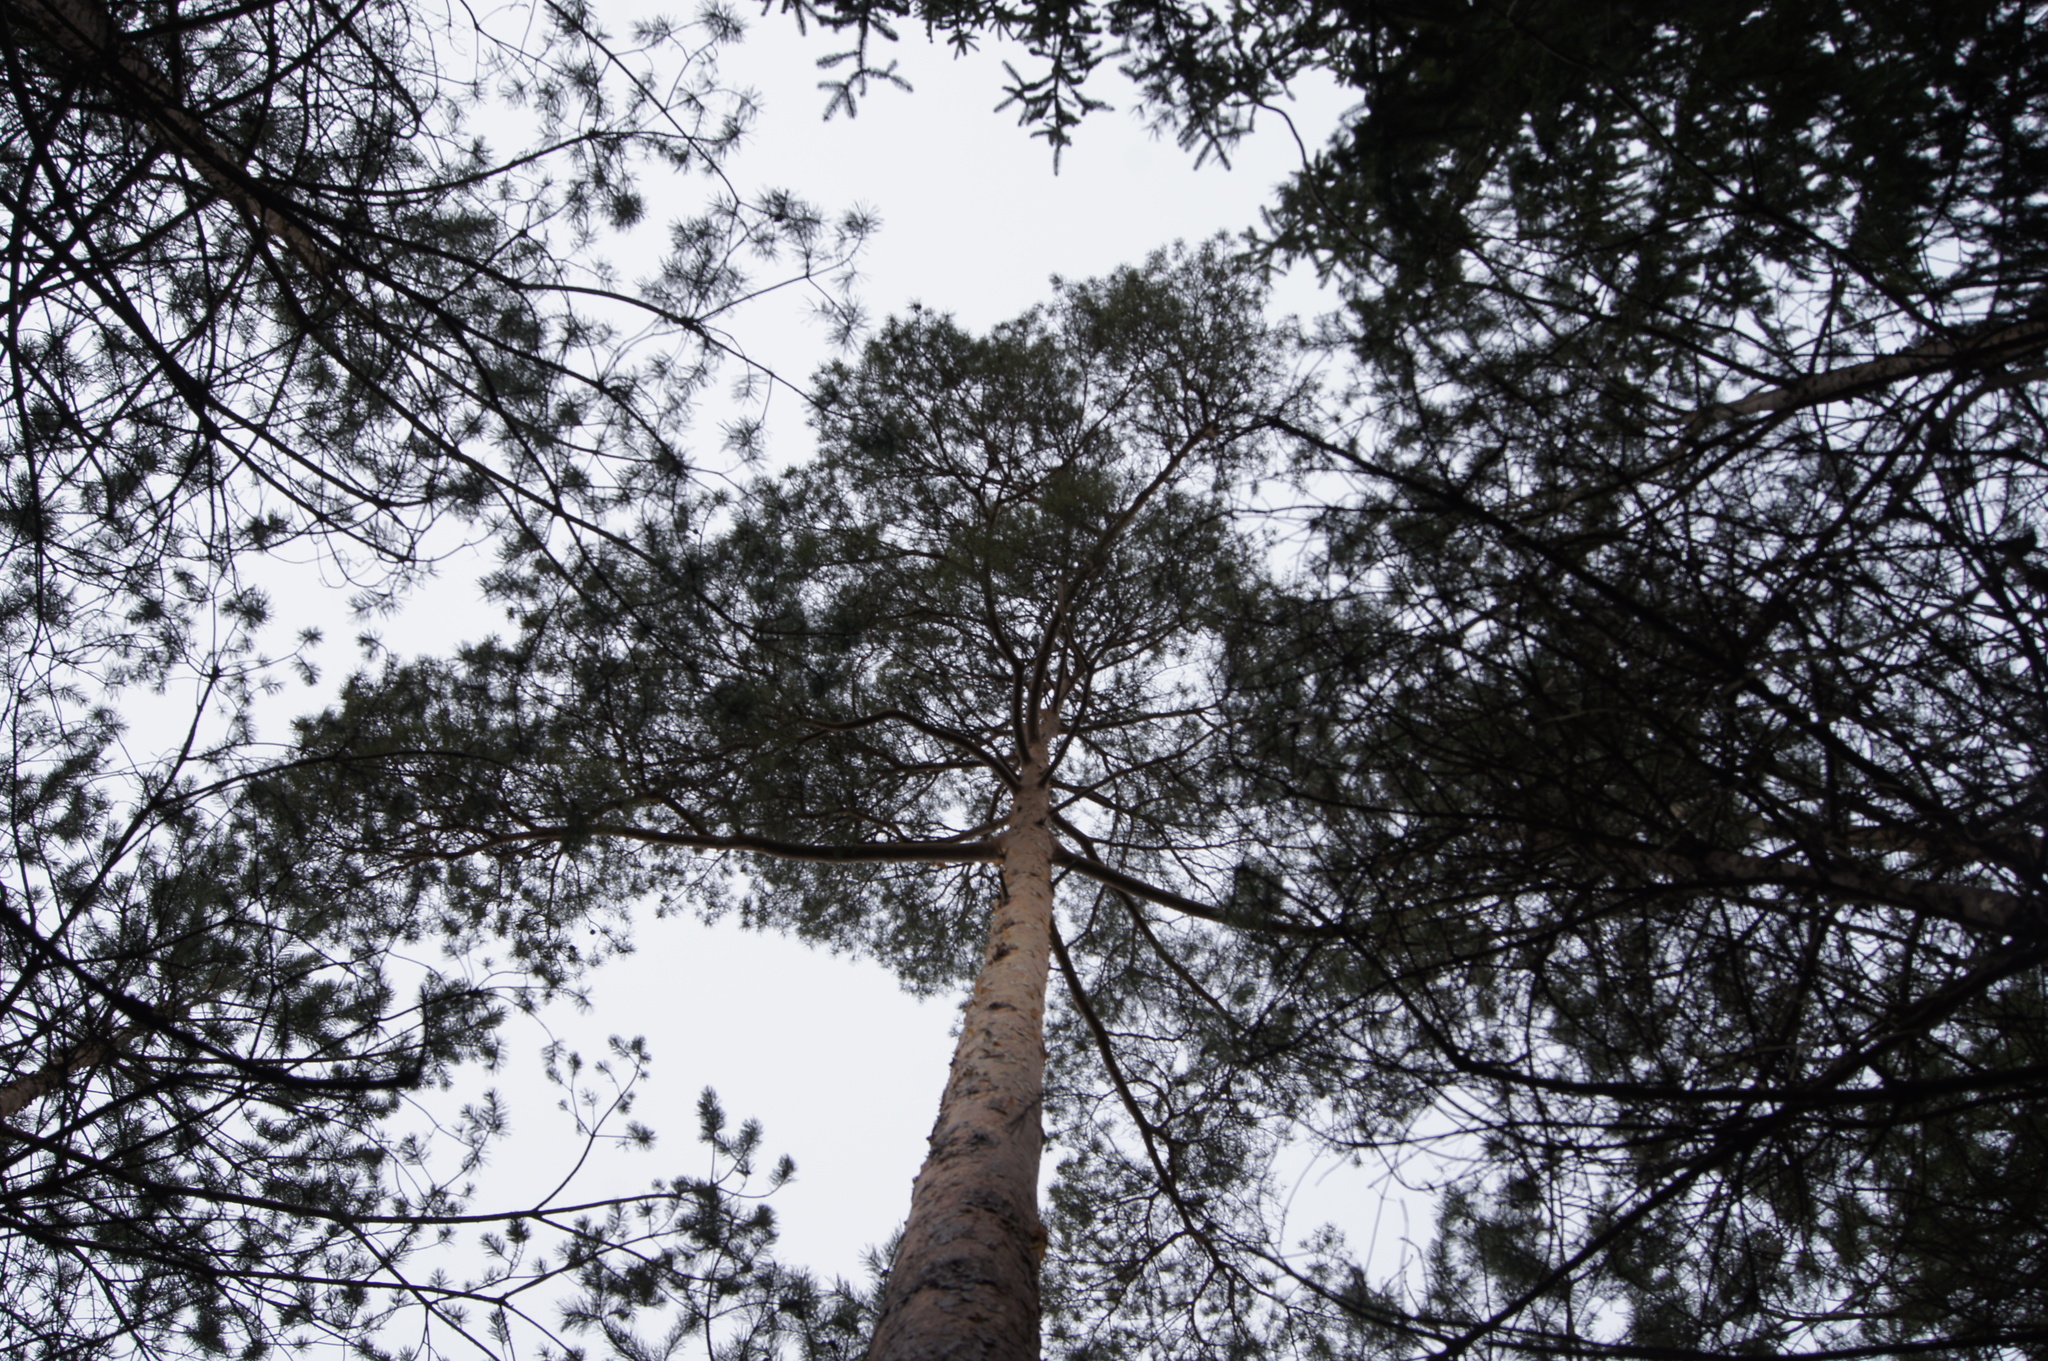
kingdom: Plantae
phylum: Tracheophyta
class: Pinopsida
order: Pinales
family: Pinaceae
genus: Pinus
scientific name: Pinus sylvestris
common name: Scots pine
